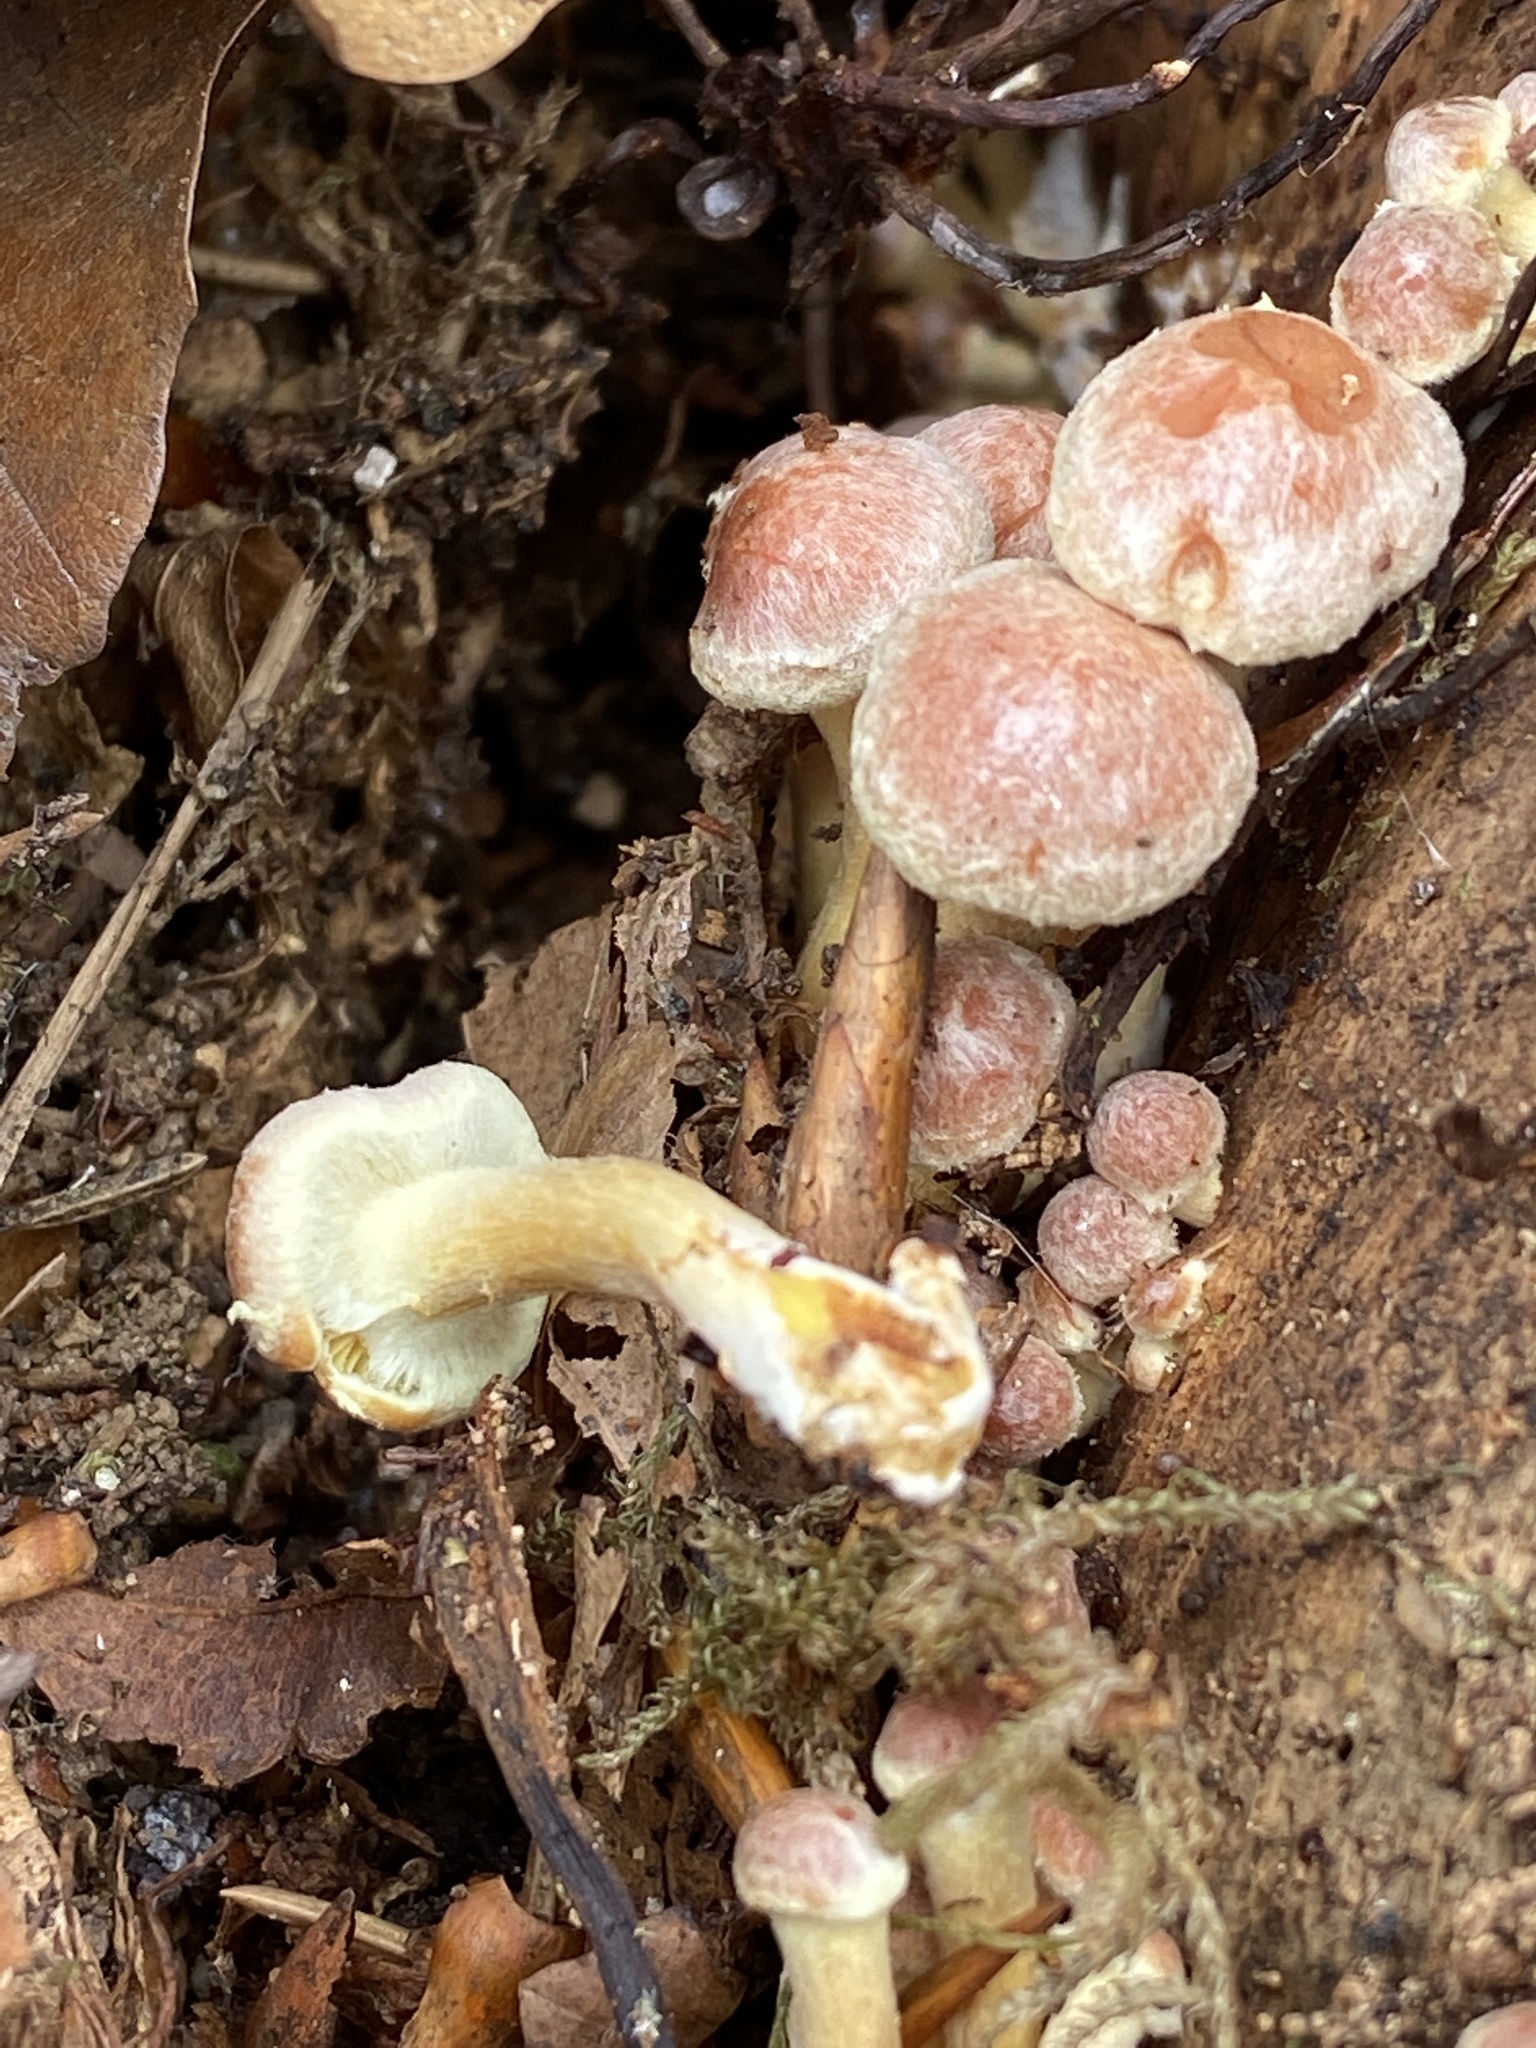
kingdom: Fungi
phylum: Basidiomycota
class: Agaricomycetes
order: Agaricales
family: Strophariaceae
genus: Hypholoma
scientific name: Hypholoma lateritium
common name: Brick caps
